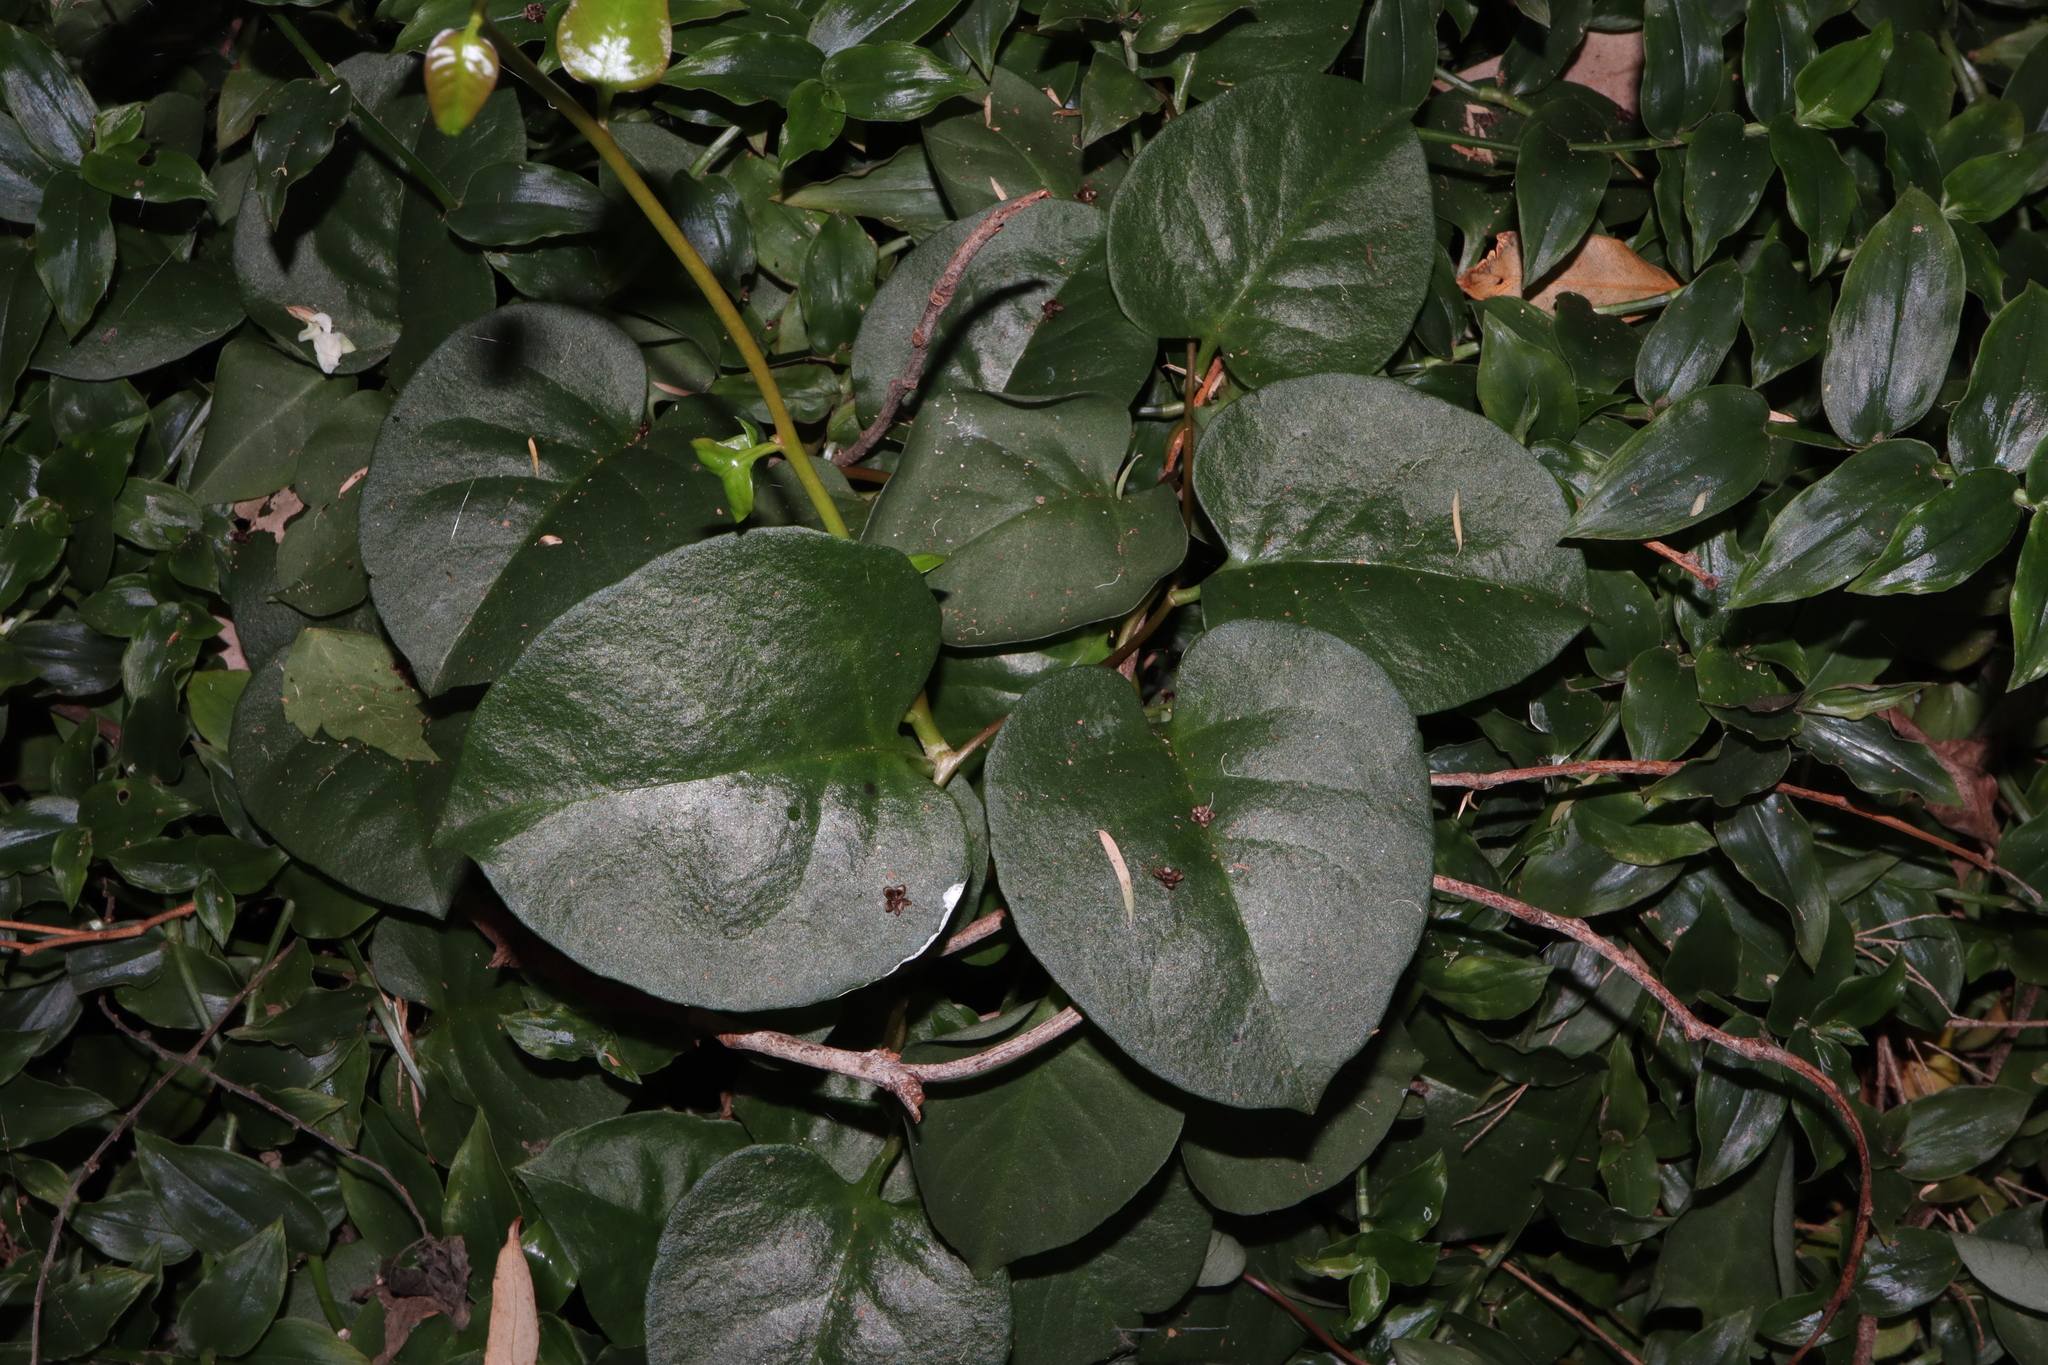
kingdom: Plantae
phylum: Tracheophyta
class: Magnoliopsida
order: Caryophyllales
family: Basellaceae
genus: Anredera
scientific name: Anredera cordifolia
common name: Heartleaf madeiravine
